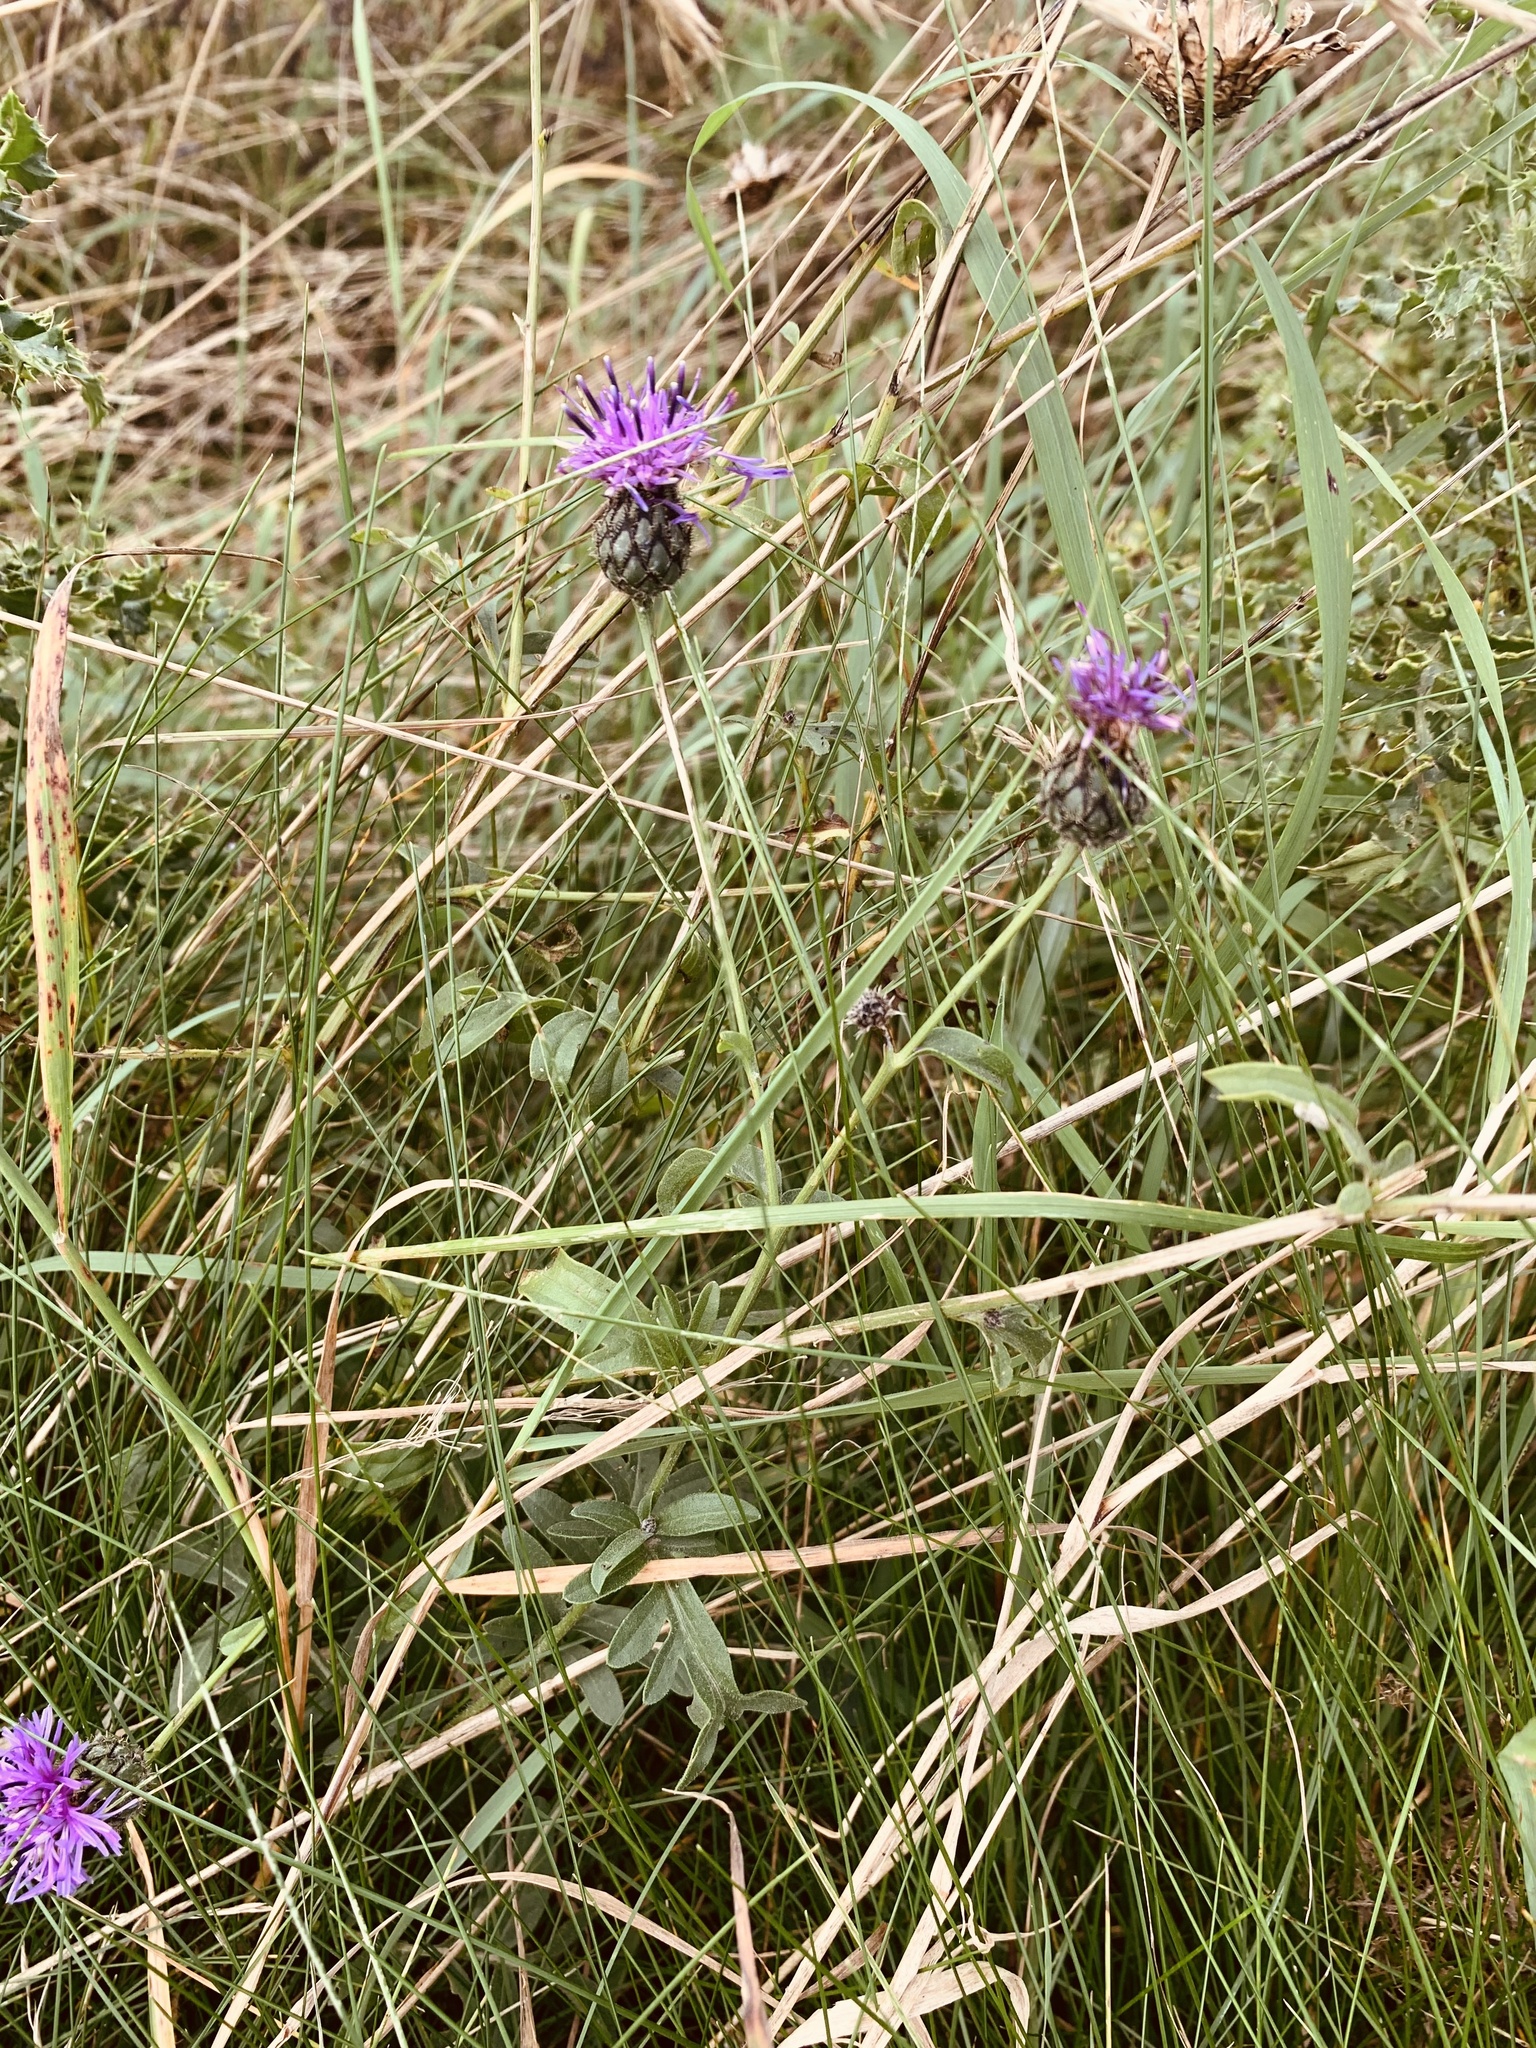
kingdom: Plantae
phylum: Tracheophyta
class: Magnoliopsida
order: Asterales
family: Asteraceae
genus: Centaurea
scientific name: Centaurea scabiosa
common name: Greater knapweed
